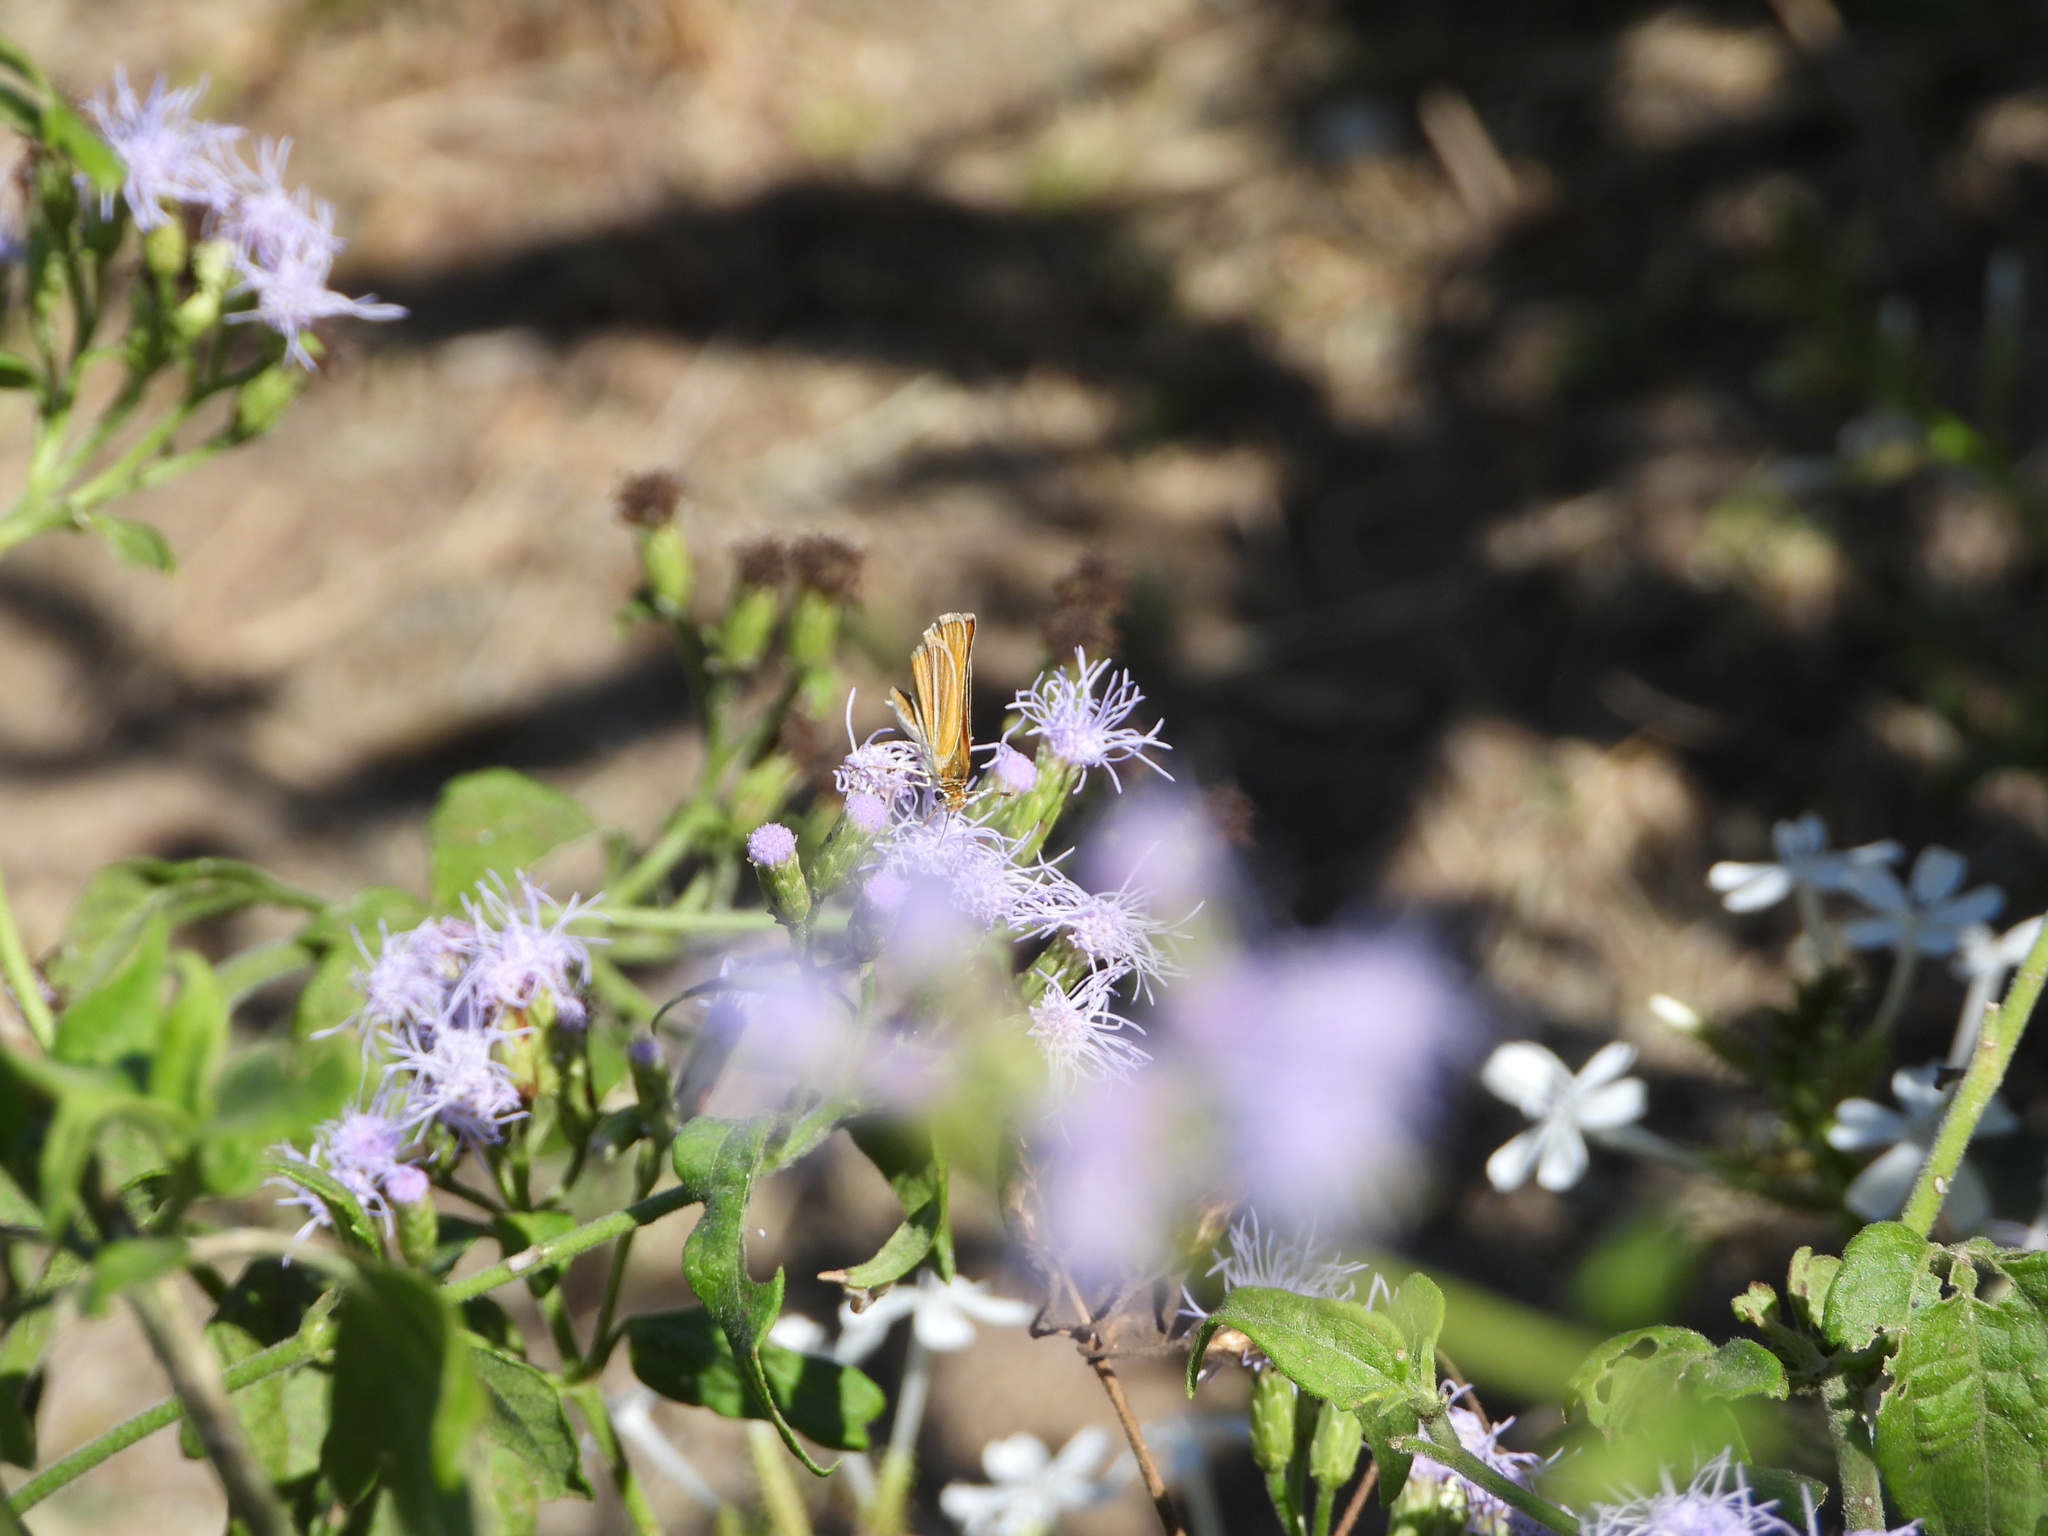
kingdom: Animalia
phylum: Arthropoda
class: Insecta
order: Lepidoptera
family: Hesperiidae
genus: Copaeodes
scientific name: Copaeodes minima
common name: Southern skipperling
